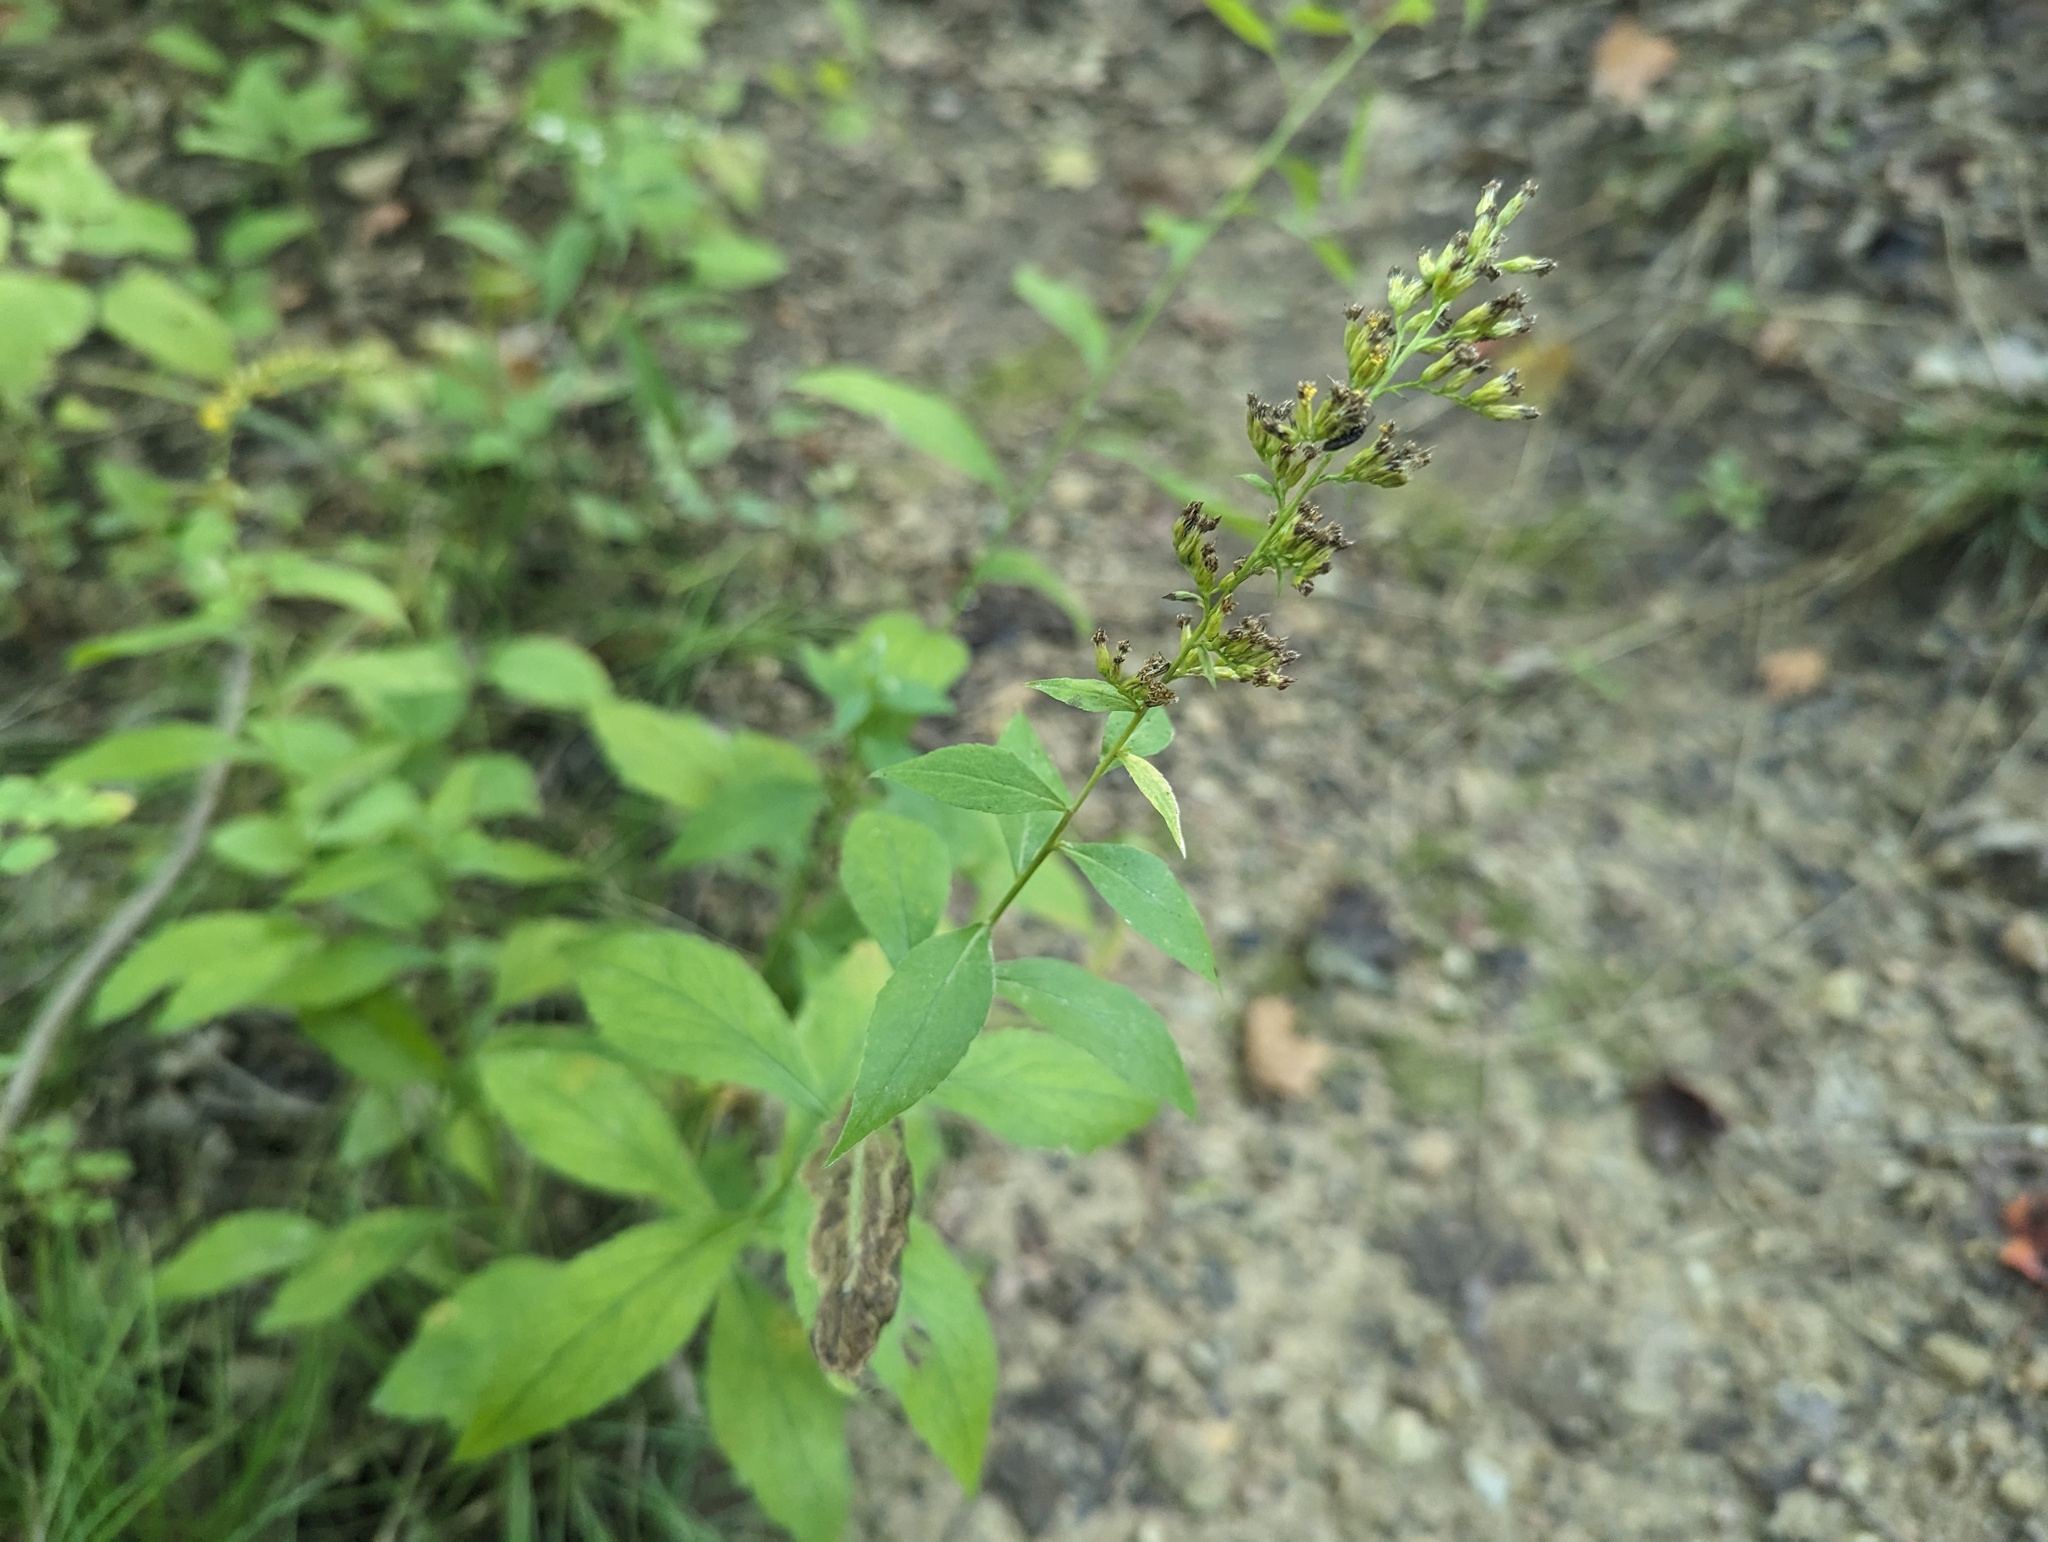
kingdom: Plantae
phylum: Tracheophyta
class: Magnoliopsida
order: Asterales
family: Asteraceae
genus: Solidago
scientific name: Solidago ulmifolia
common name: Elm-leaf goldenrod
